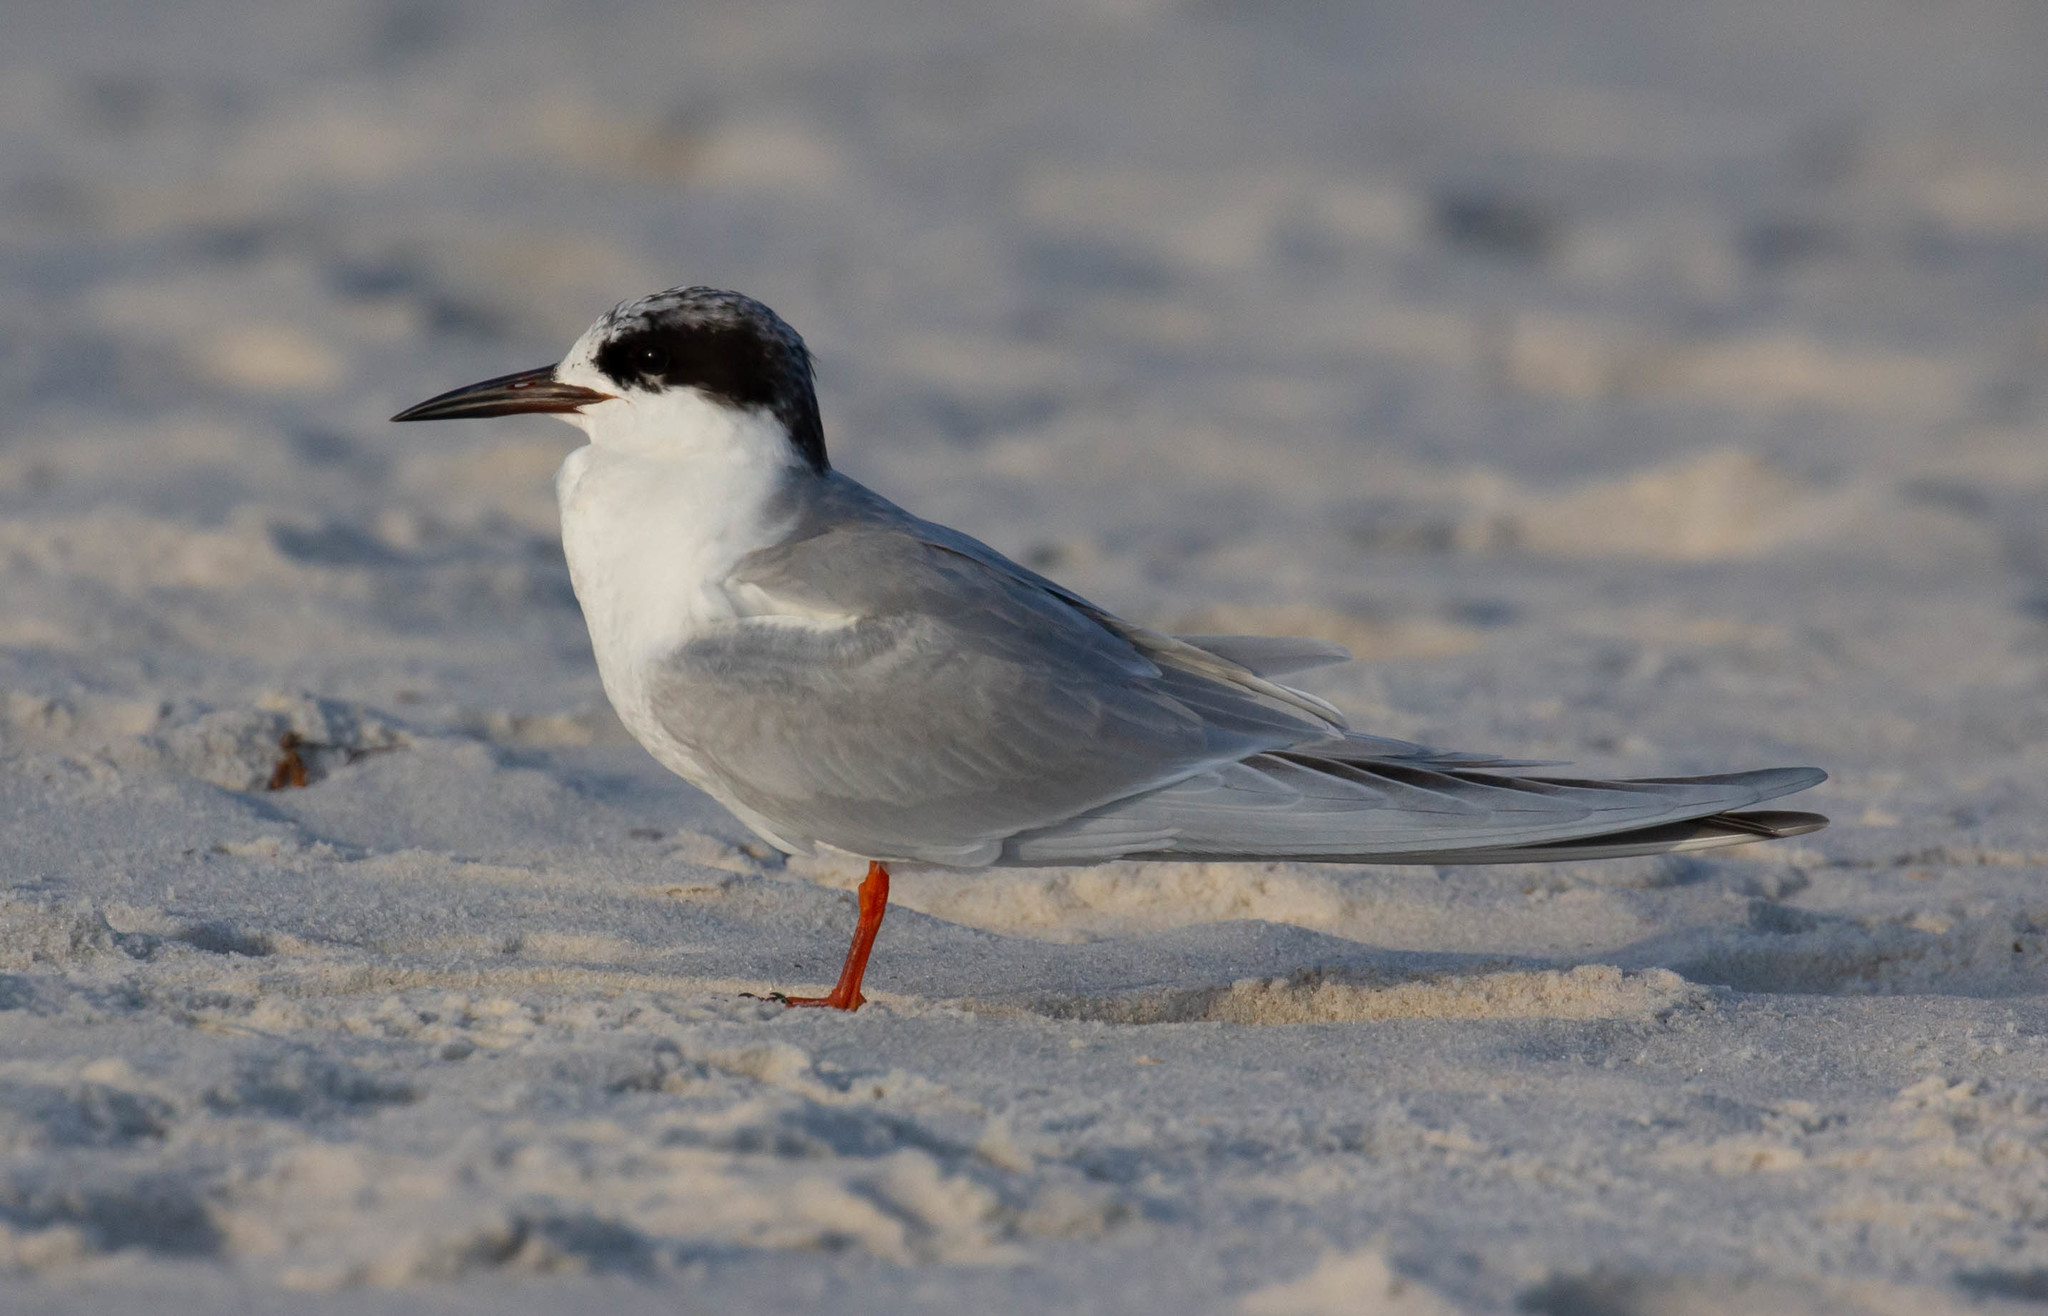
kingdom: Animalia
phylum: Chordata
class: Aves
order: Charadriiformes
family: Laridae
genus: Sterna
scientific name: Sterna forsteri
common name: Forster's tern
